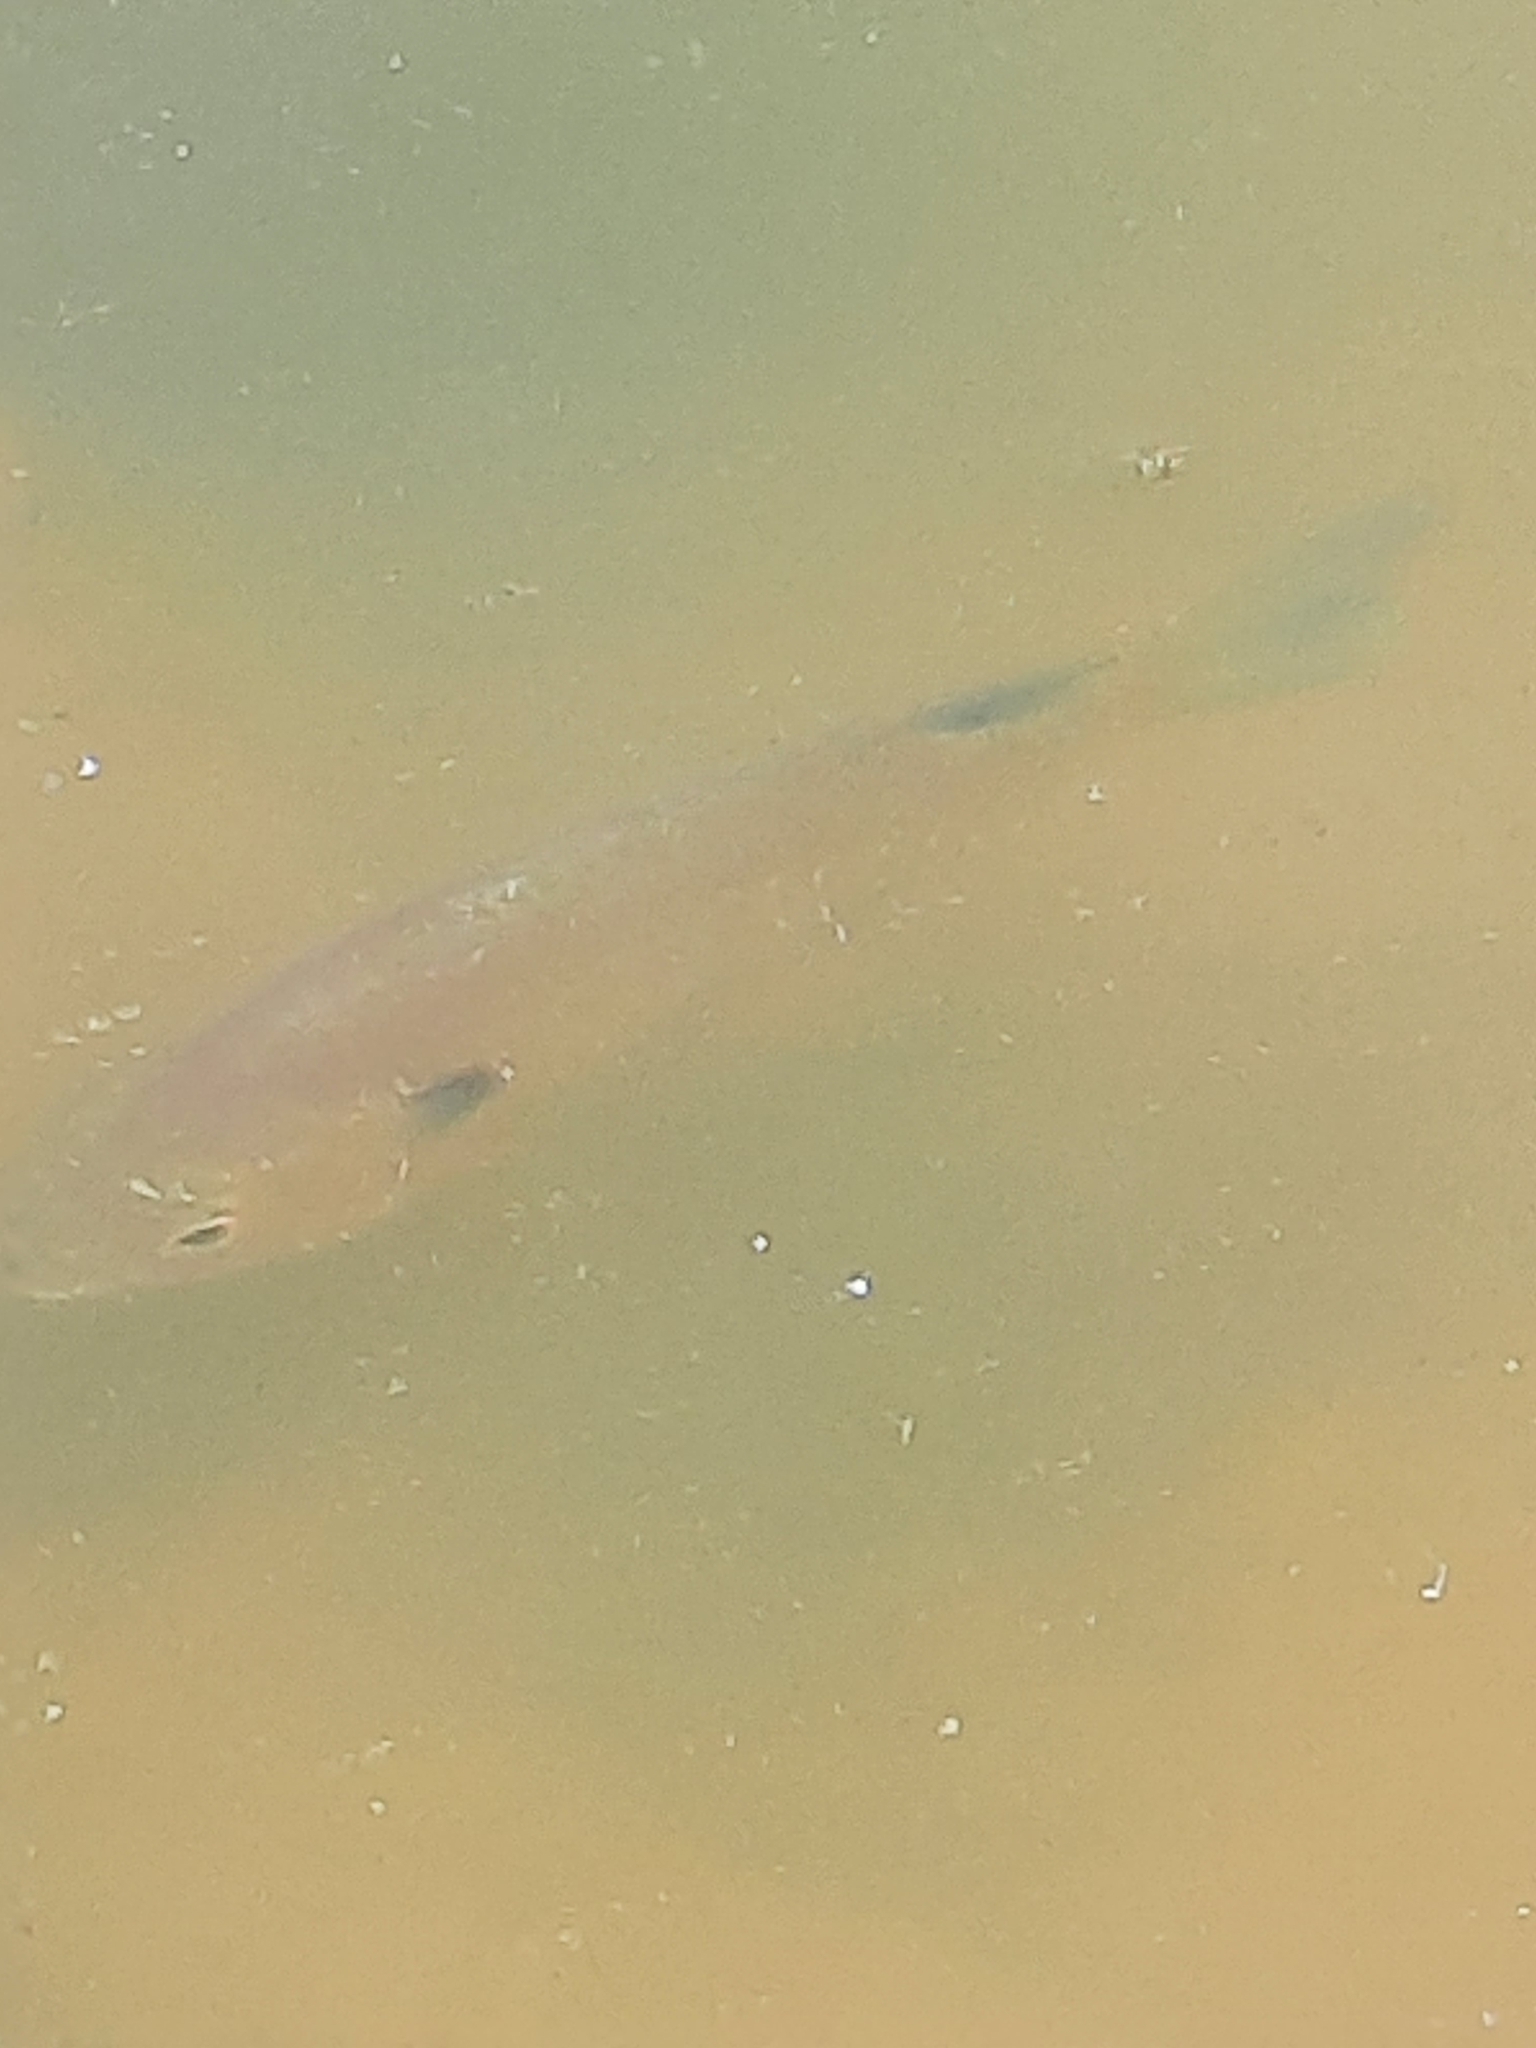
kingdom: Animalia
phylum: Chordata
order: Perciformes
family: Centrarchidae
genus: Lepomis
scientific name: Lepomis macrochirus
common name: Bluegill
